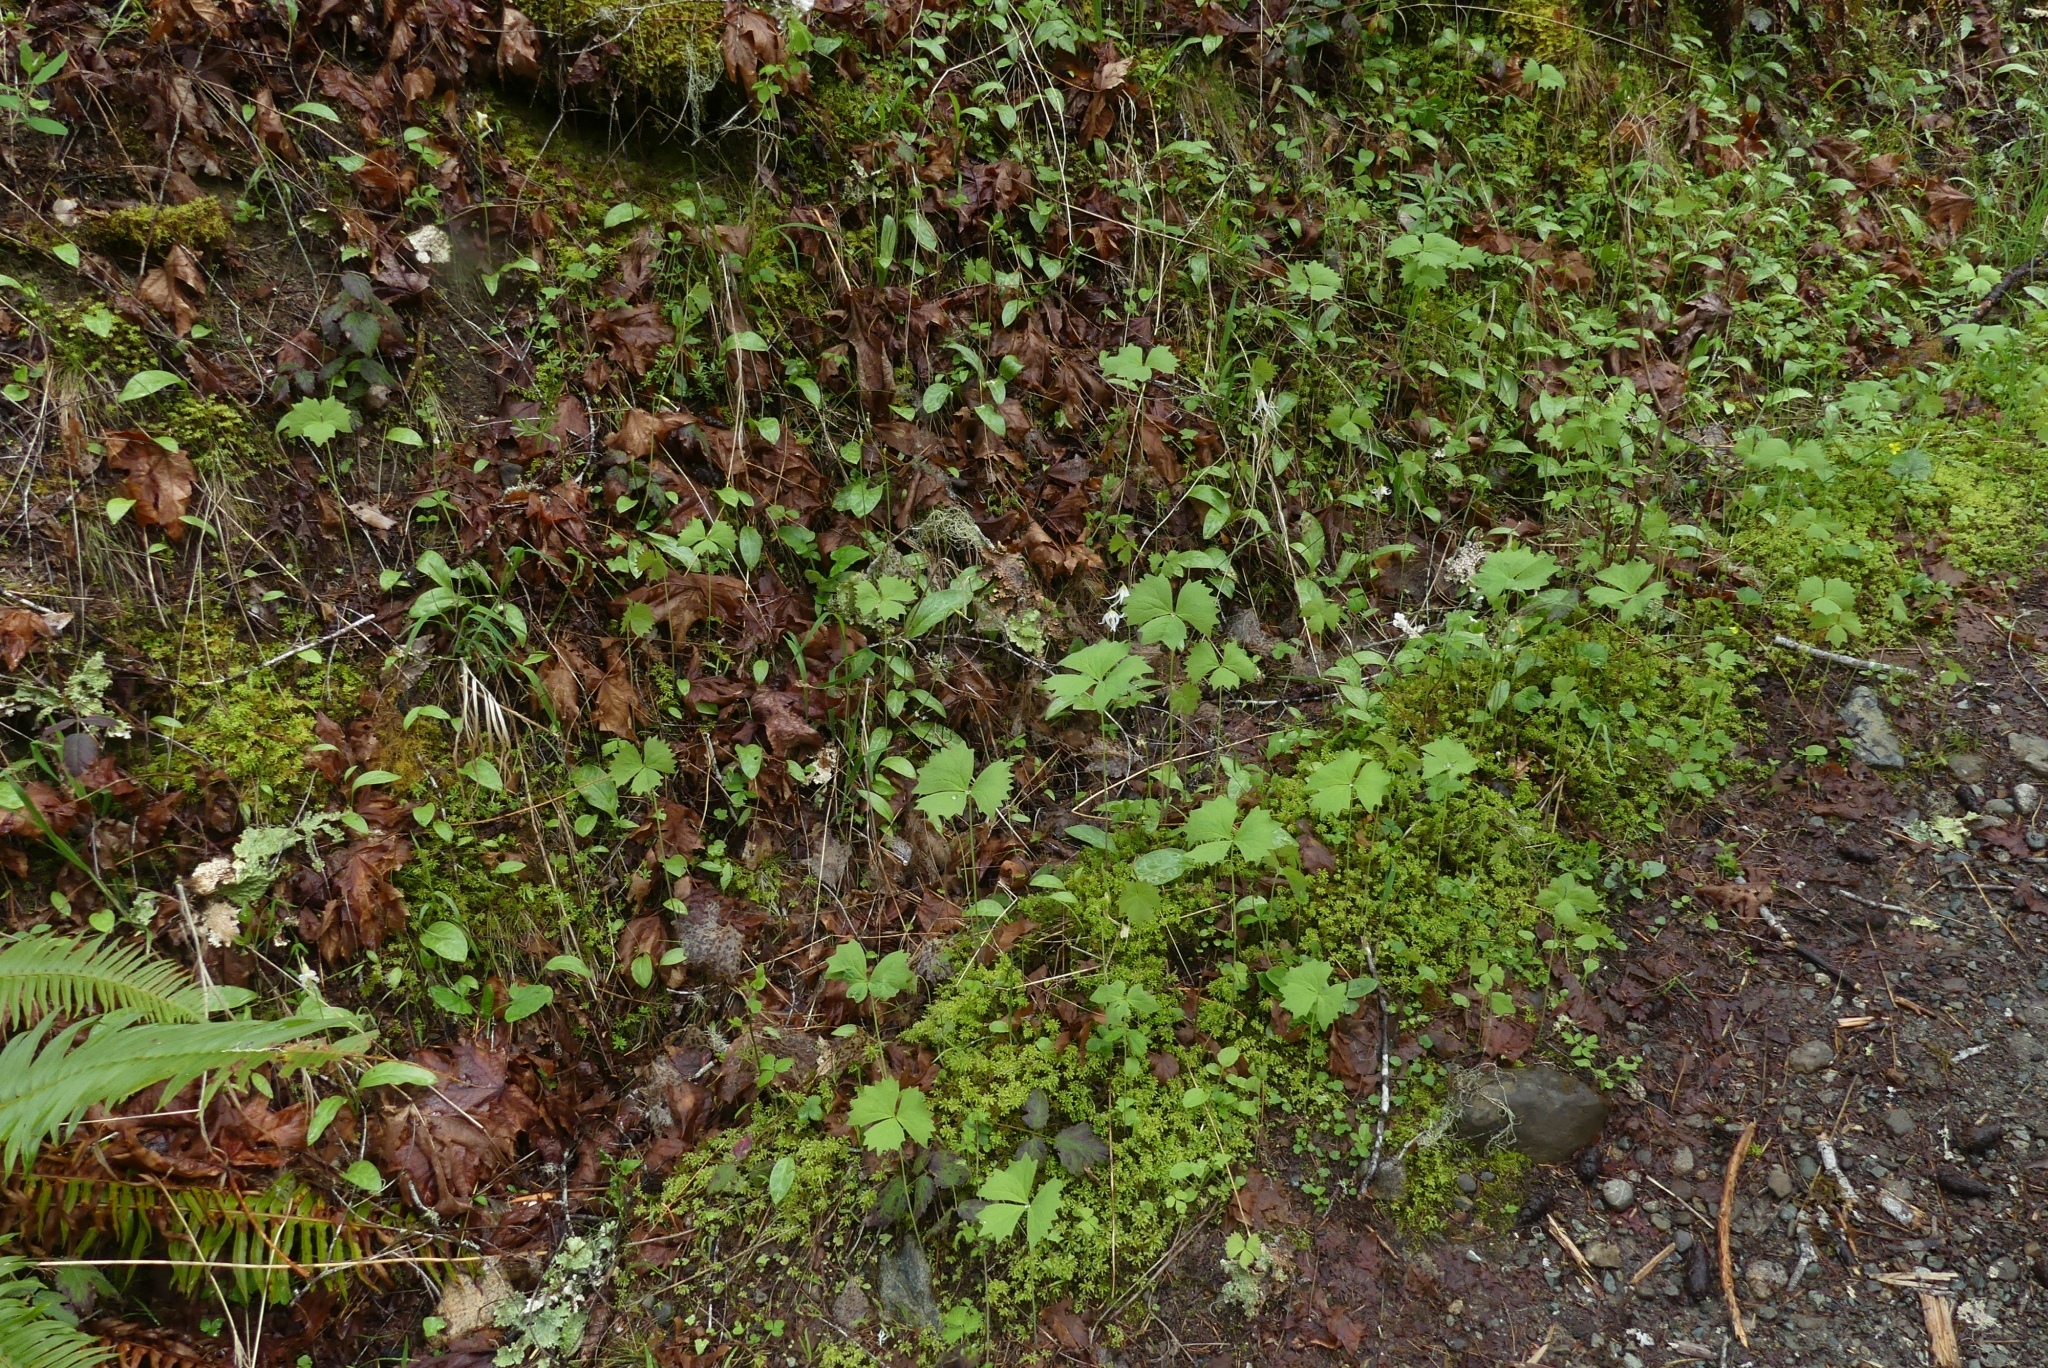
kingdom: Plantae
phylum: Tracheophyta
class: Magnoliopsida
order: Ranunculales
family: Berberidaceae
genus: Achlys
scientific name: Achlys triphylla
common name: Vanilla-leaf
